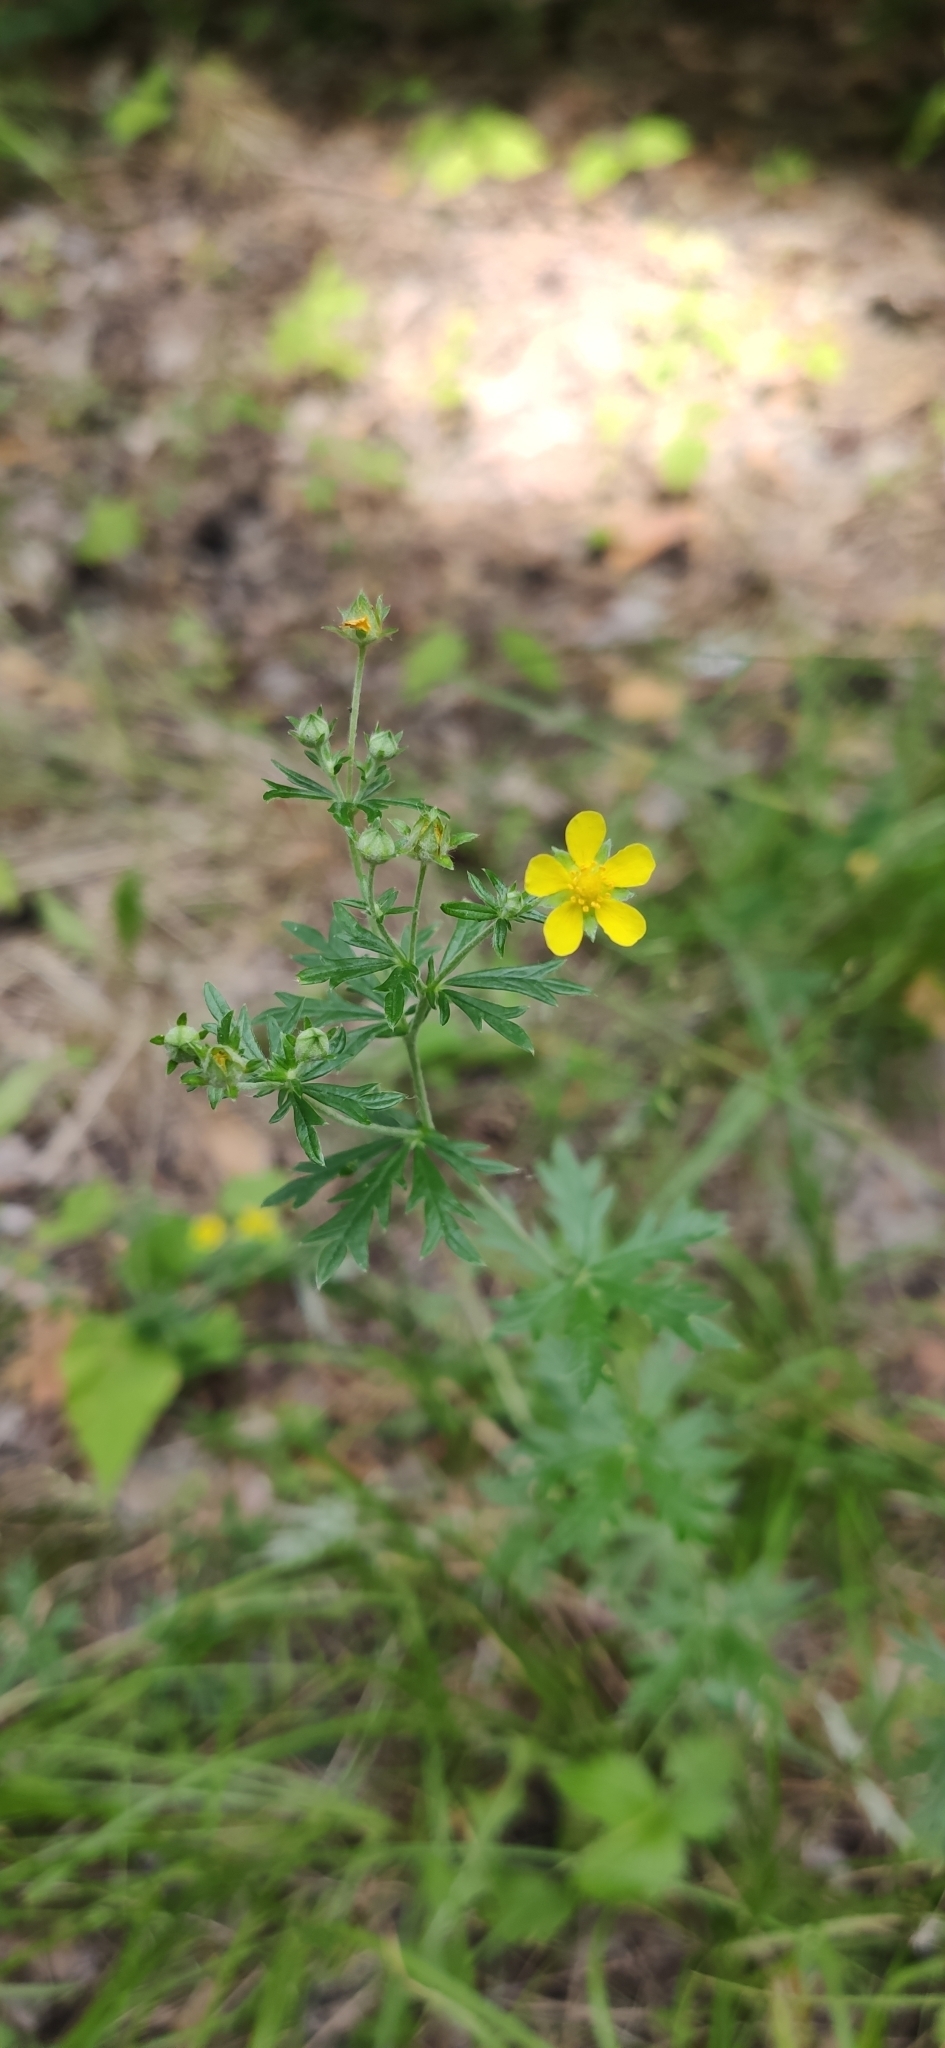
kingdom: Plantae
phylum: Tracheophyta
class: Magnoliopsida
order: Rosales
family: Rosaceae
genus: Potentilla
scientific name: Potentilla argentea
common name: Hoary cinquefoil
